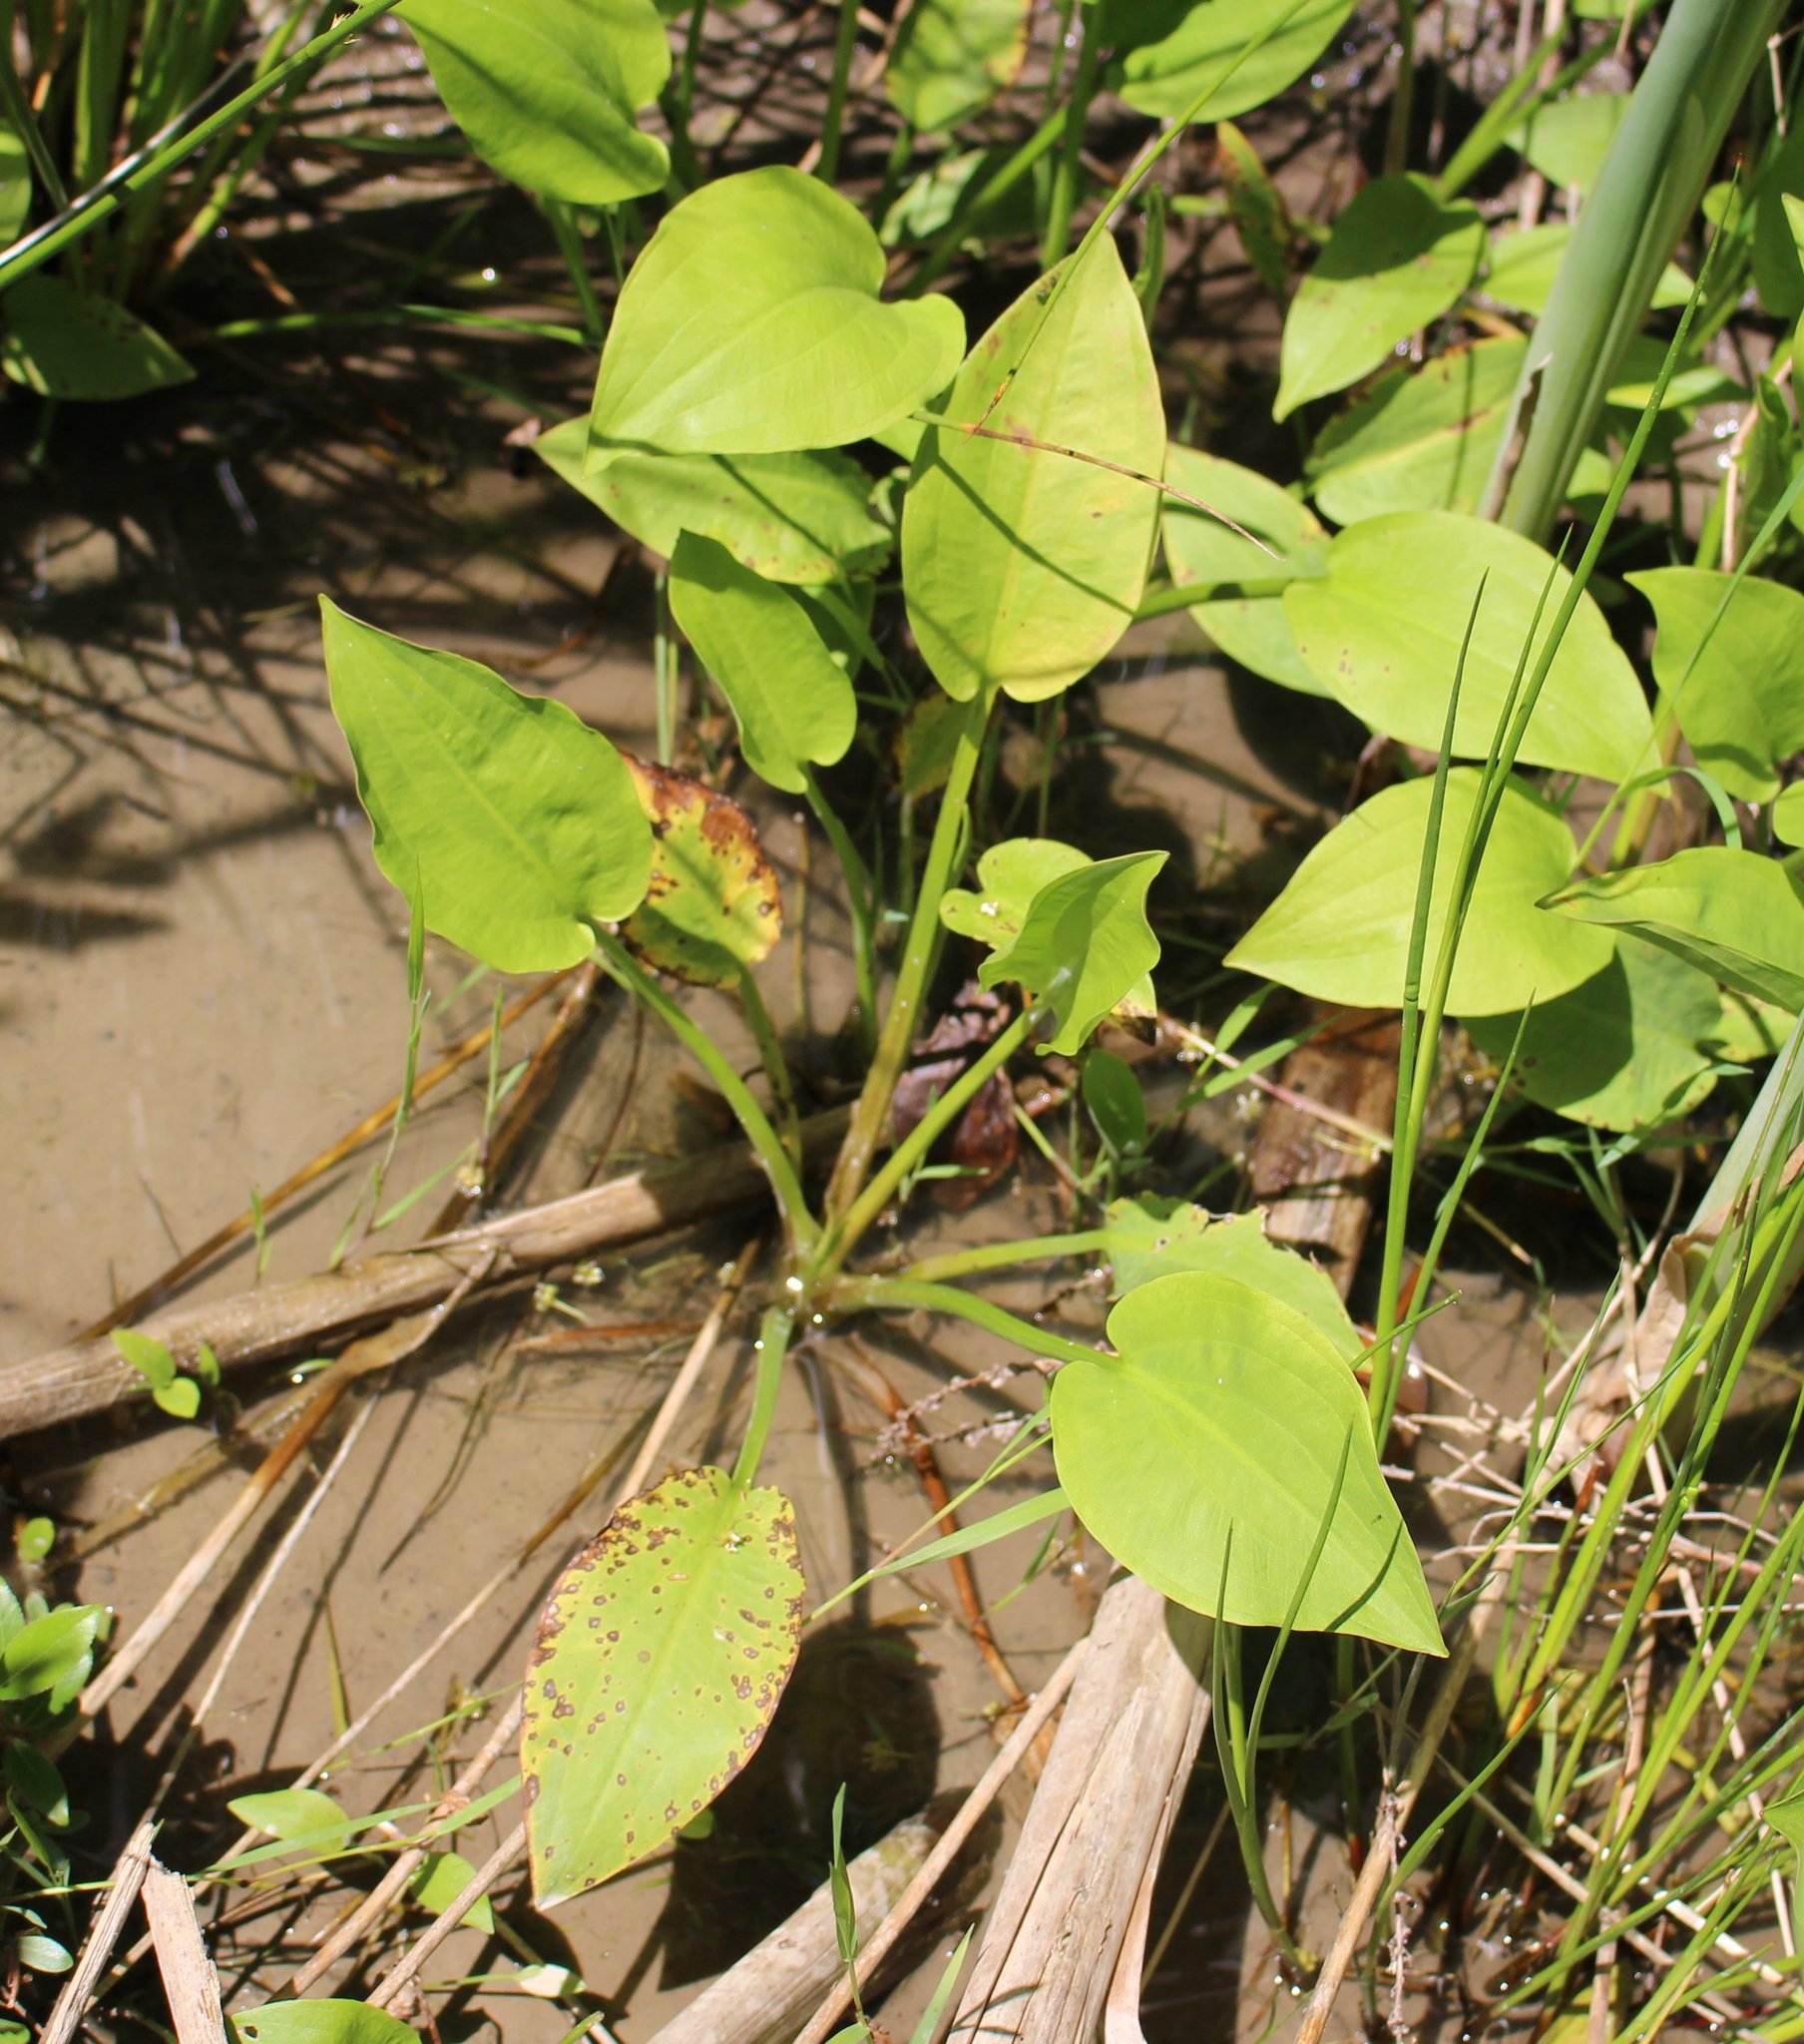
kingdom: Plantae
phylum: Tracheophyta
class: Liliopsida
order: Alismatales
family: Alismataceae
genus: Alisma
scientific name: Alisma plantago-aquatica
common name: Water-plantain
